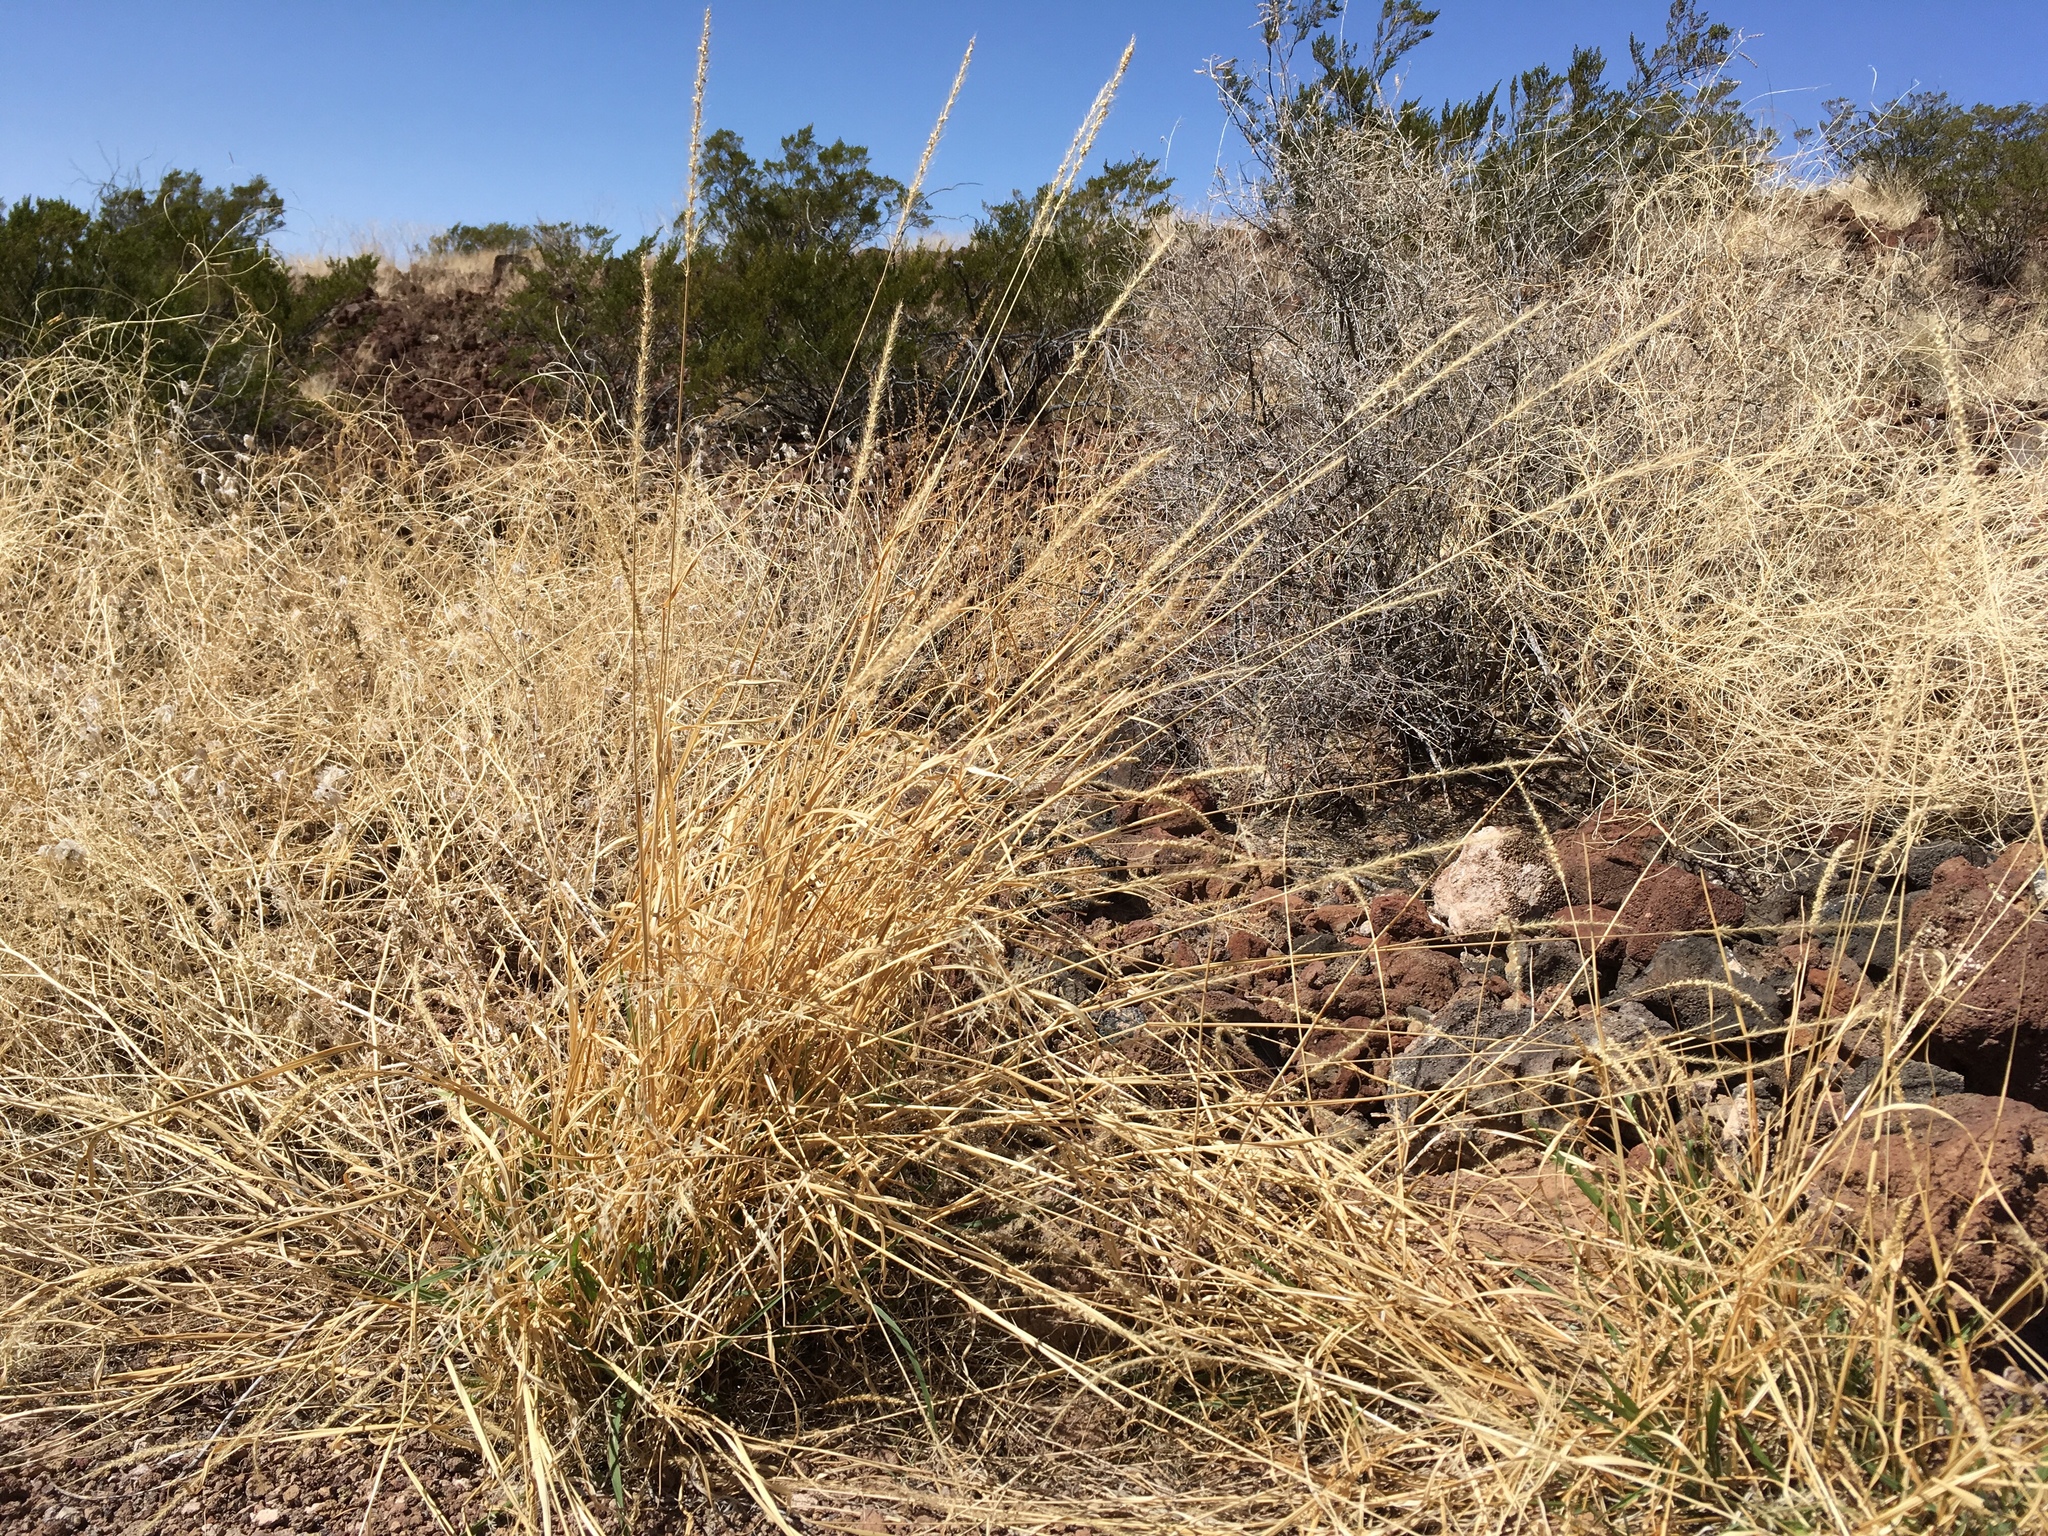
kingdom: Plantae
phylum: Tracheophyta
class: Liliopsida
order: Poales
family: Poaceae
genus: Setaria
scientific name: Setaria leucopila
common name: Plains bristle grass
